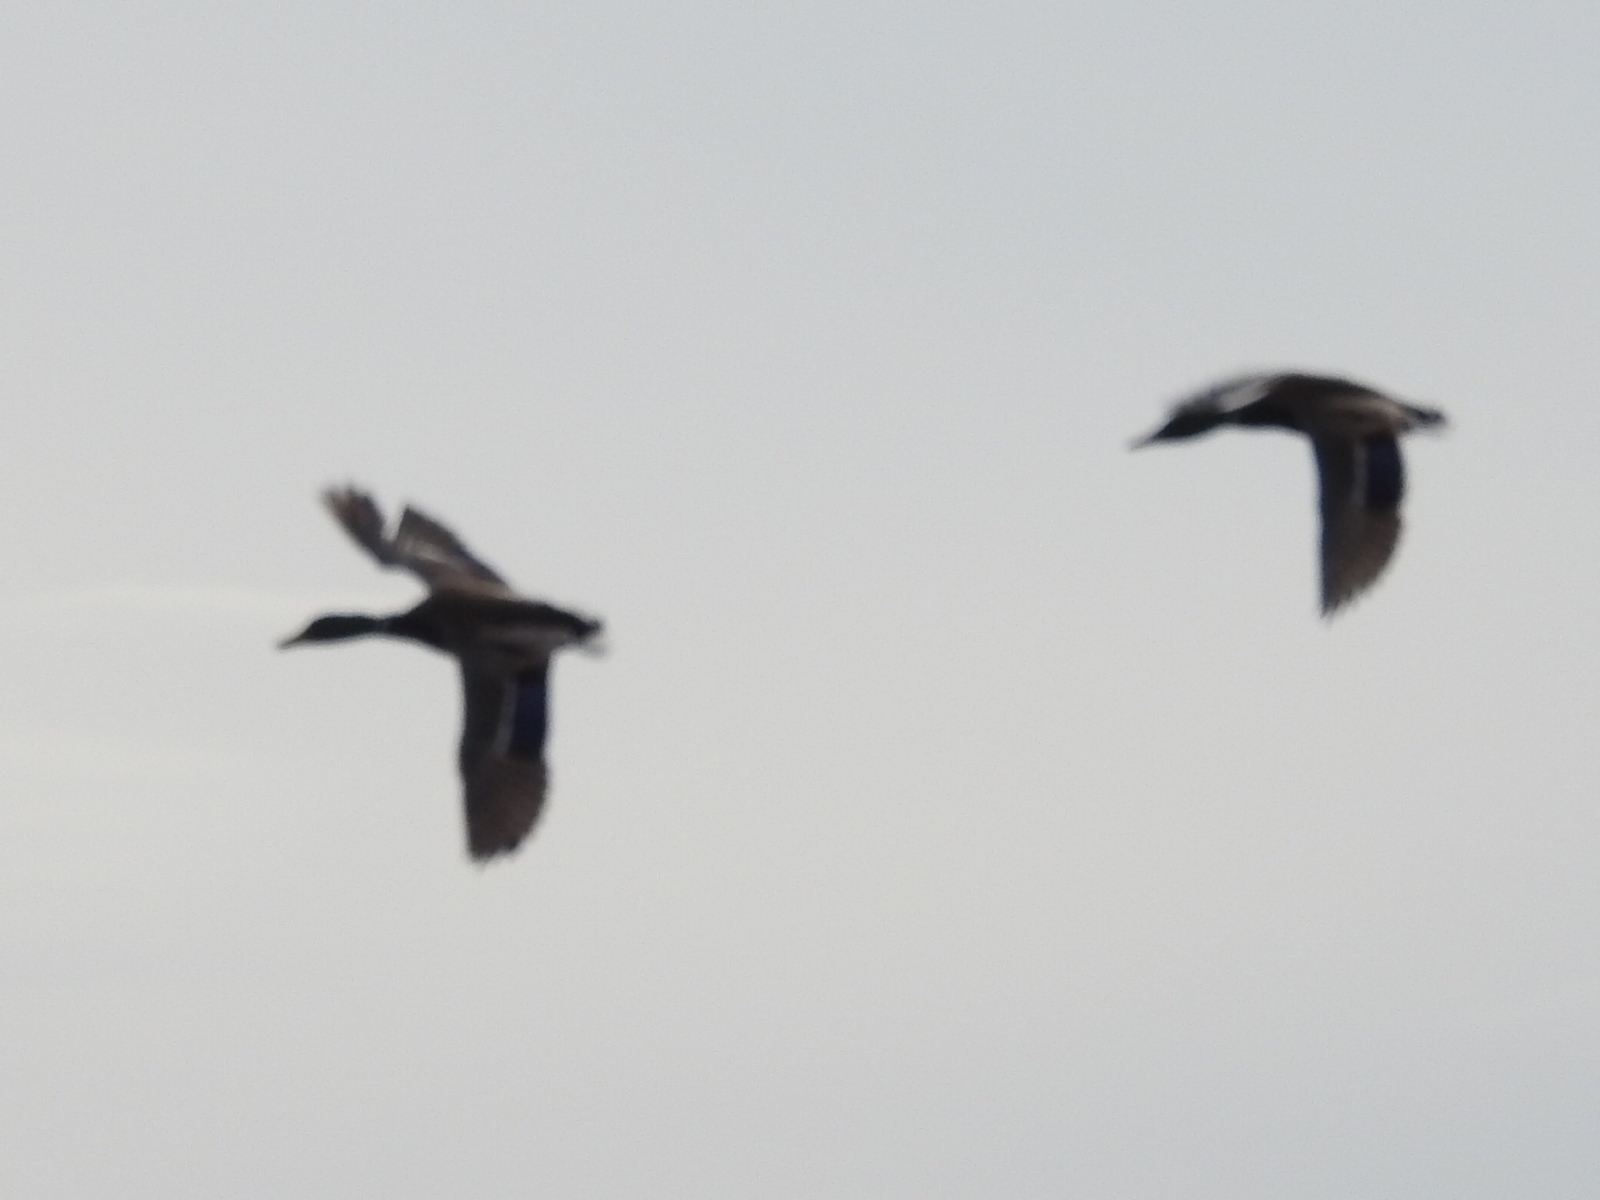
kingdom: Animalia
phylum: Chordata
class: Aves
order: Anseriformes
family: Anatidae
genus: Anas
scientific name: Anas platyrhynchos
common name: Mallard
